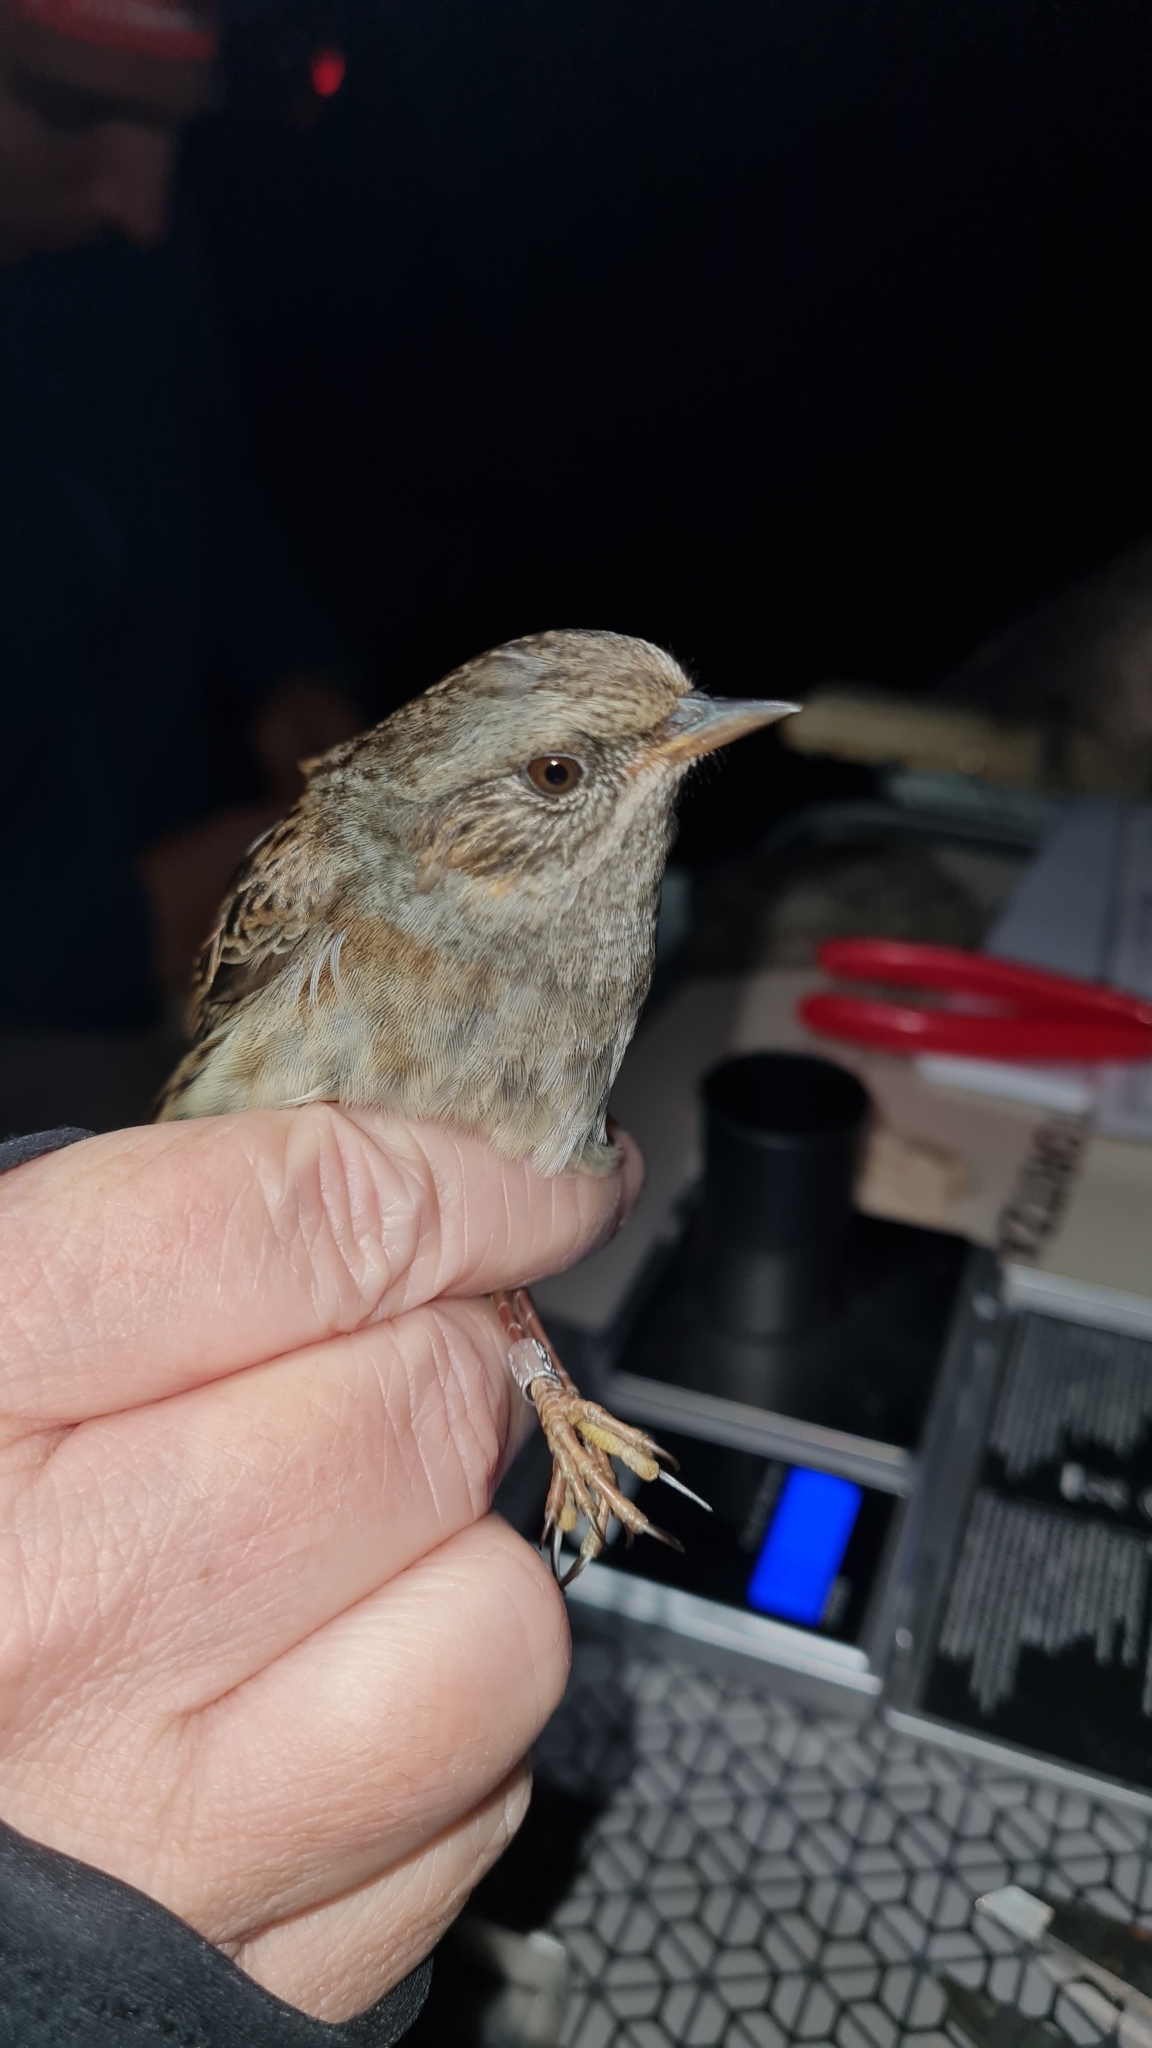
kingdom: Animalia
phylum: Chordata
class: Aves
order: Passeriformes
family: Prunellidae
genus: Prunella
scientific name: Prunella modularis
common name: Dunnock
